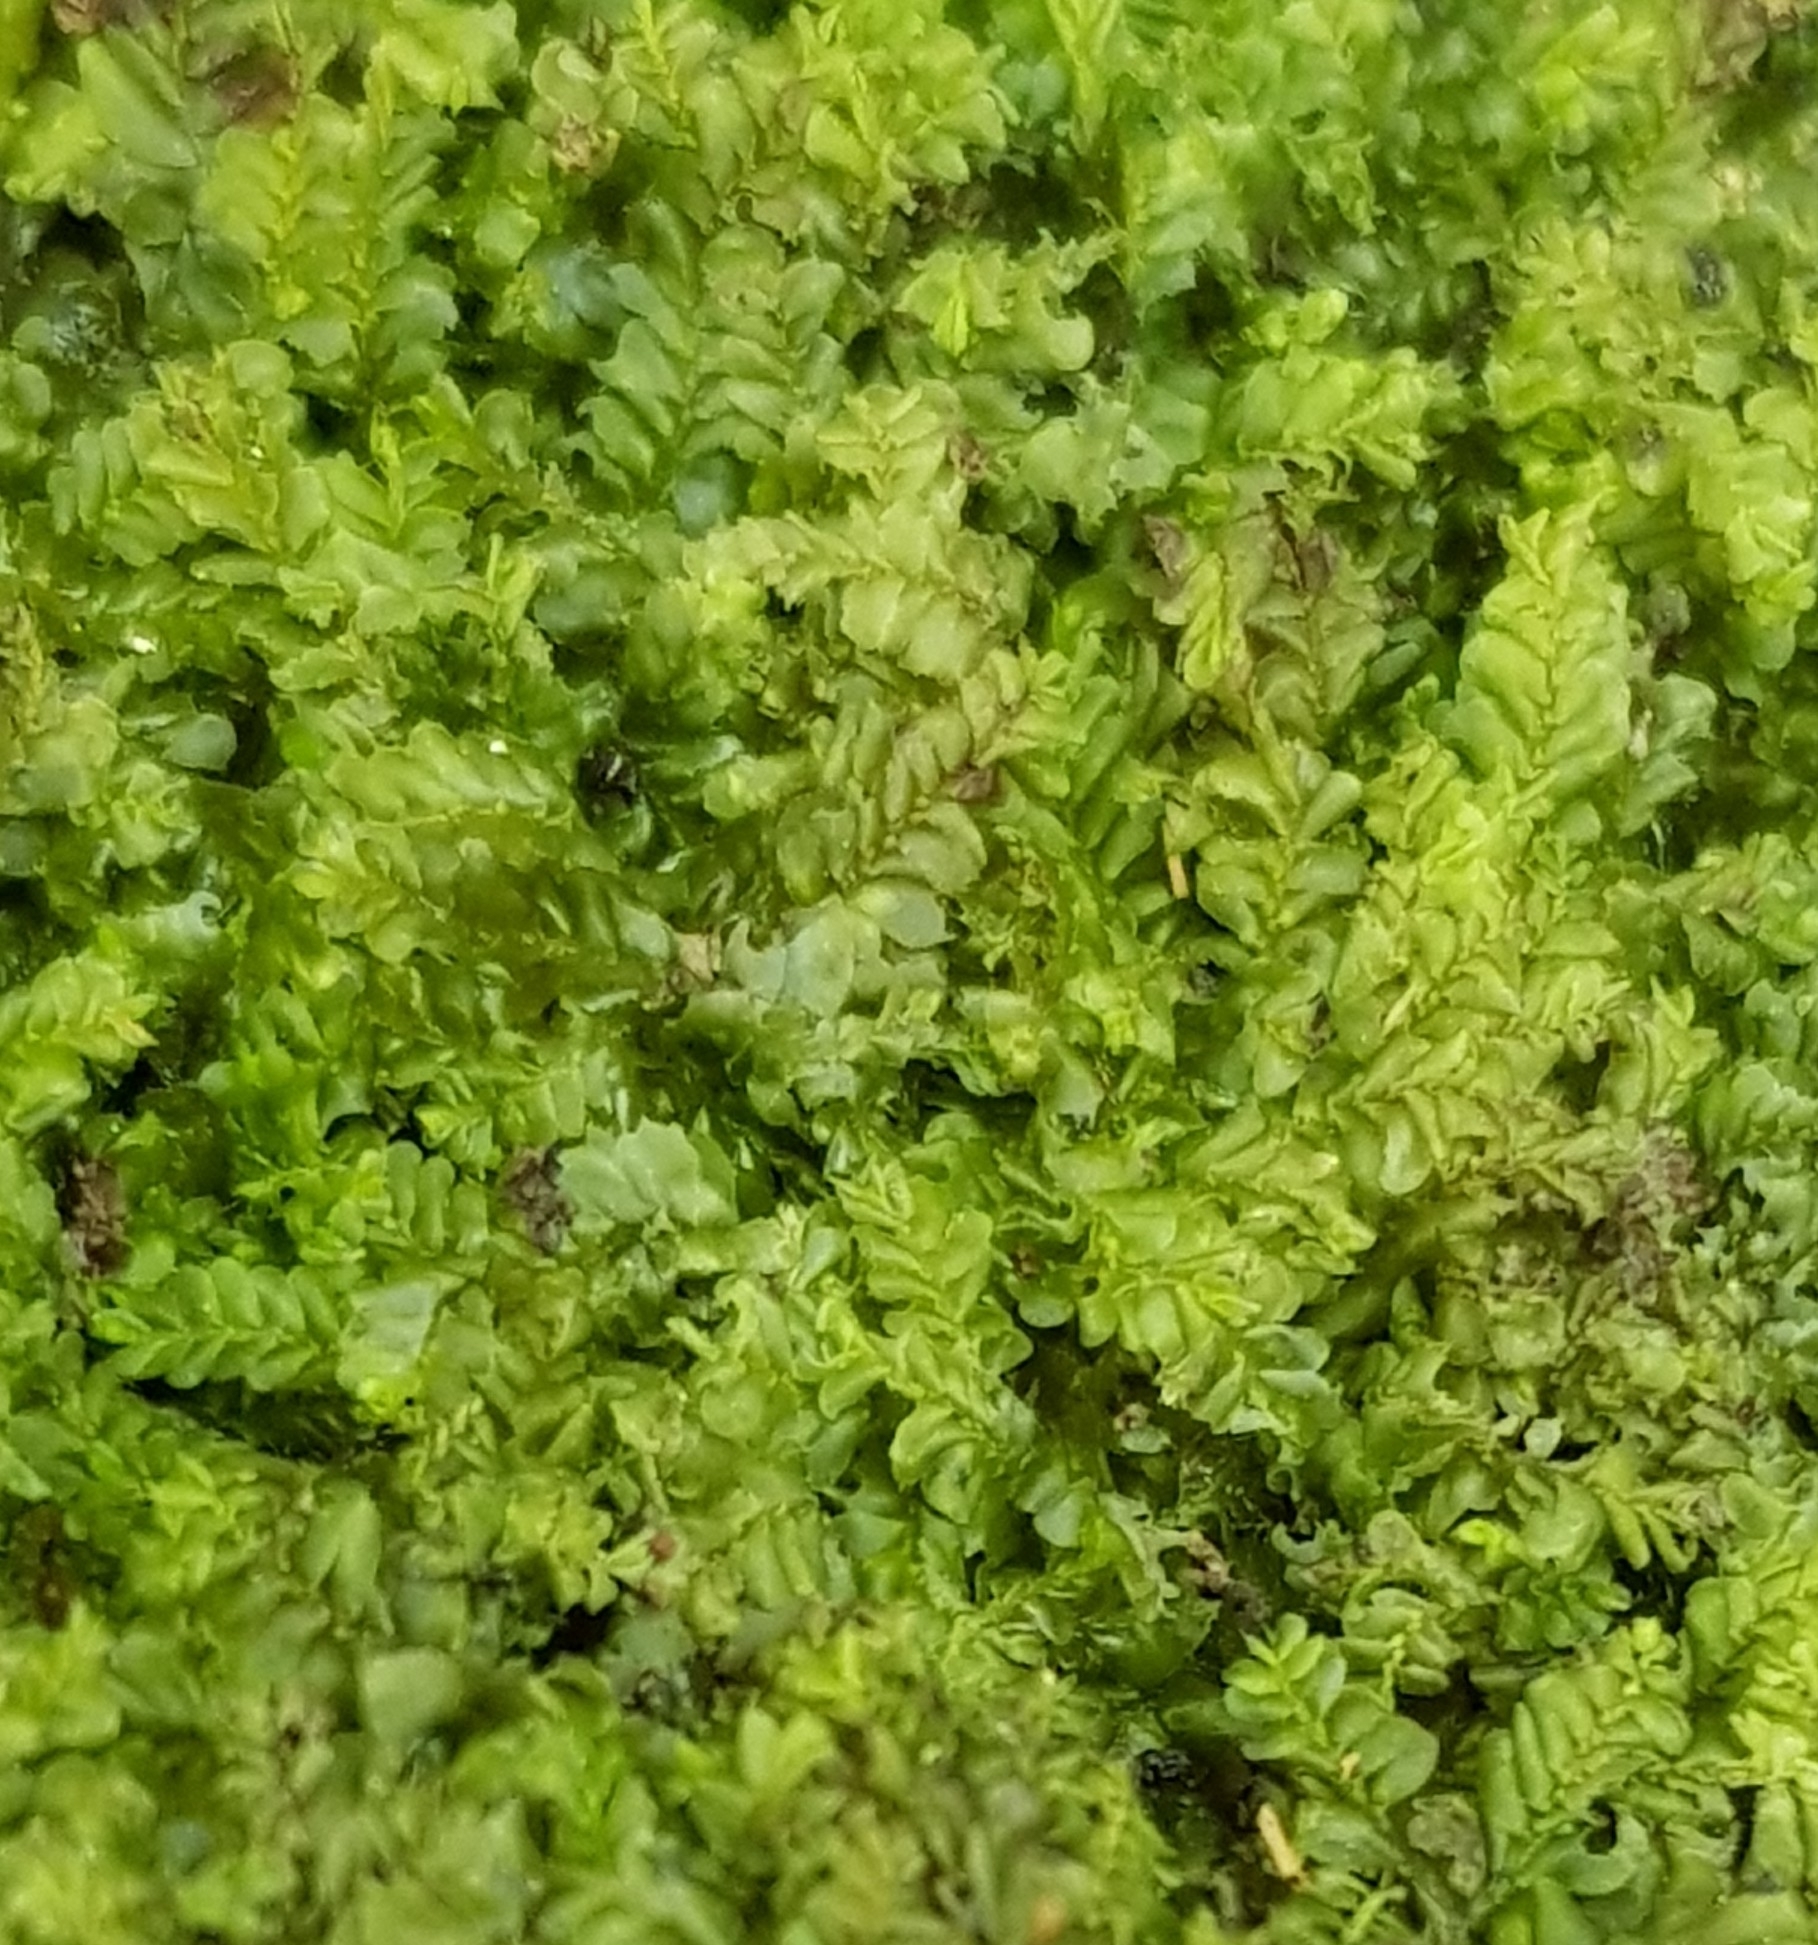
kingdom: Plantae
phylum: Marchantiophyta
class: Jungermanniopsida
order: Jungermanniales
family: Lophocoleaceae
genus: Chiloscyphus
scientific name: Chiloscyphus polyanthos
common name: Square-leaved crestwort
